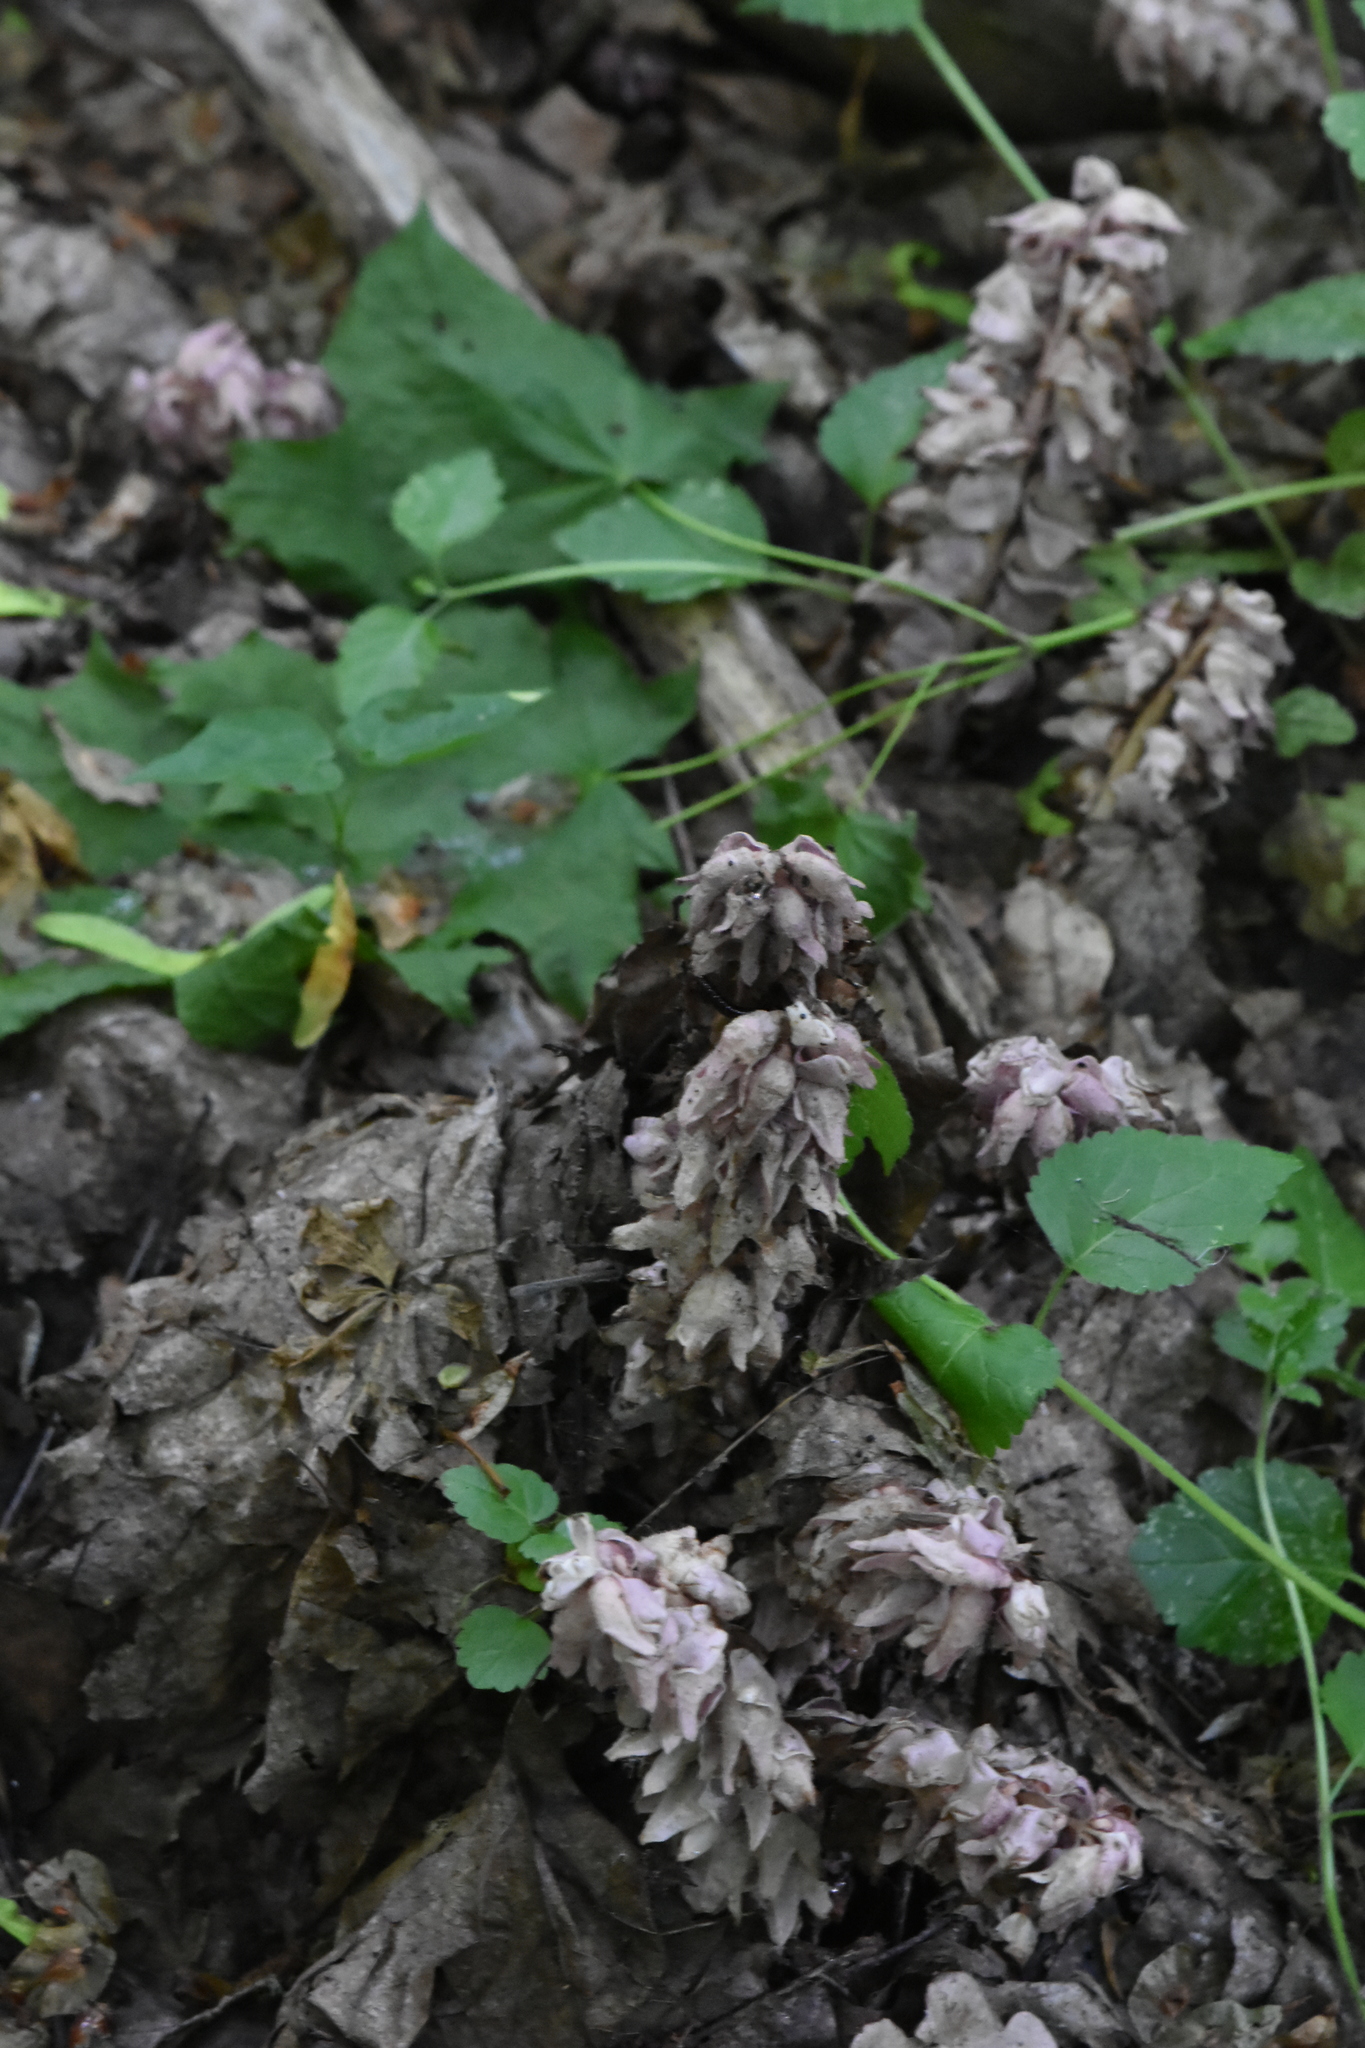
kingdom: Plantae
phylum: Tracheophyta
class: Magnoliopsida
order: Lamiales
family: Orobanchaceae
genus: Lathraea
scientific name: Lathraea squamaria
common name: Toothwort
